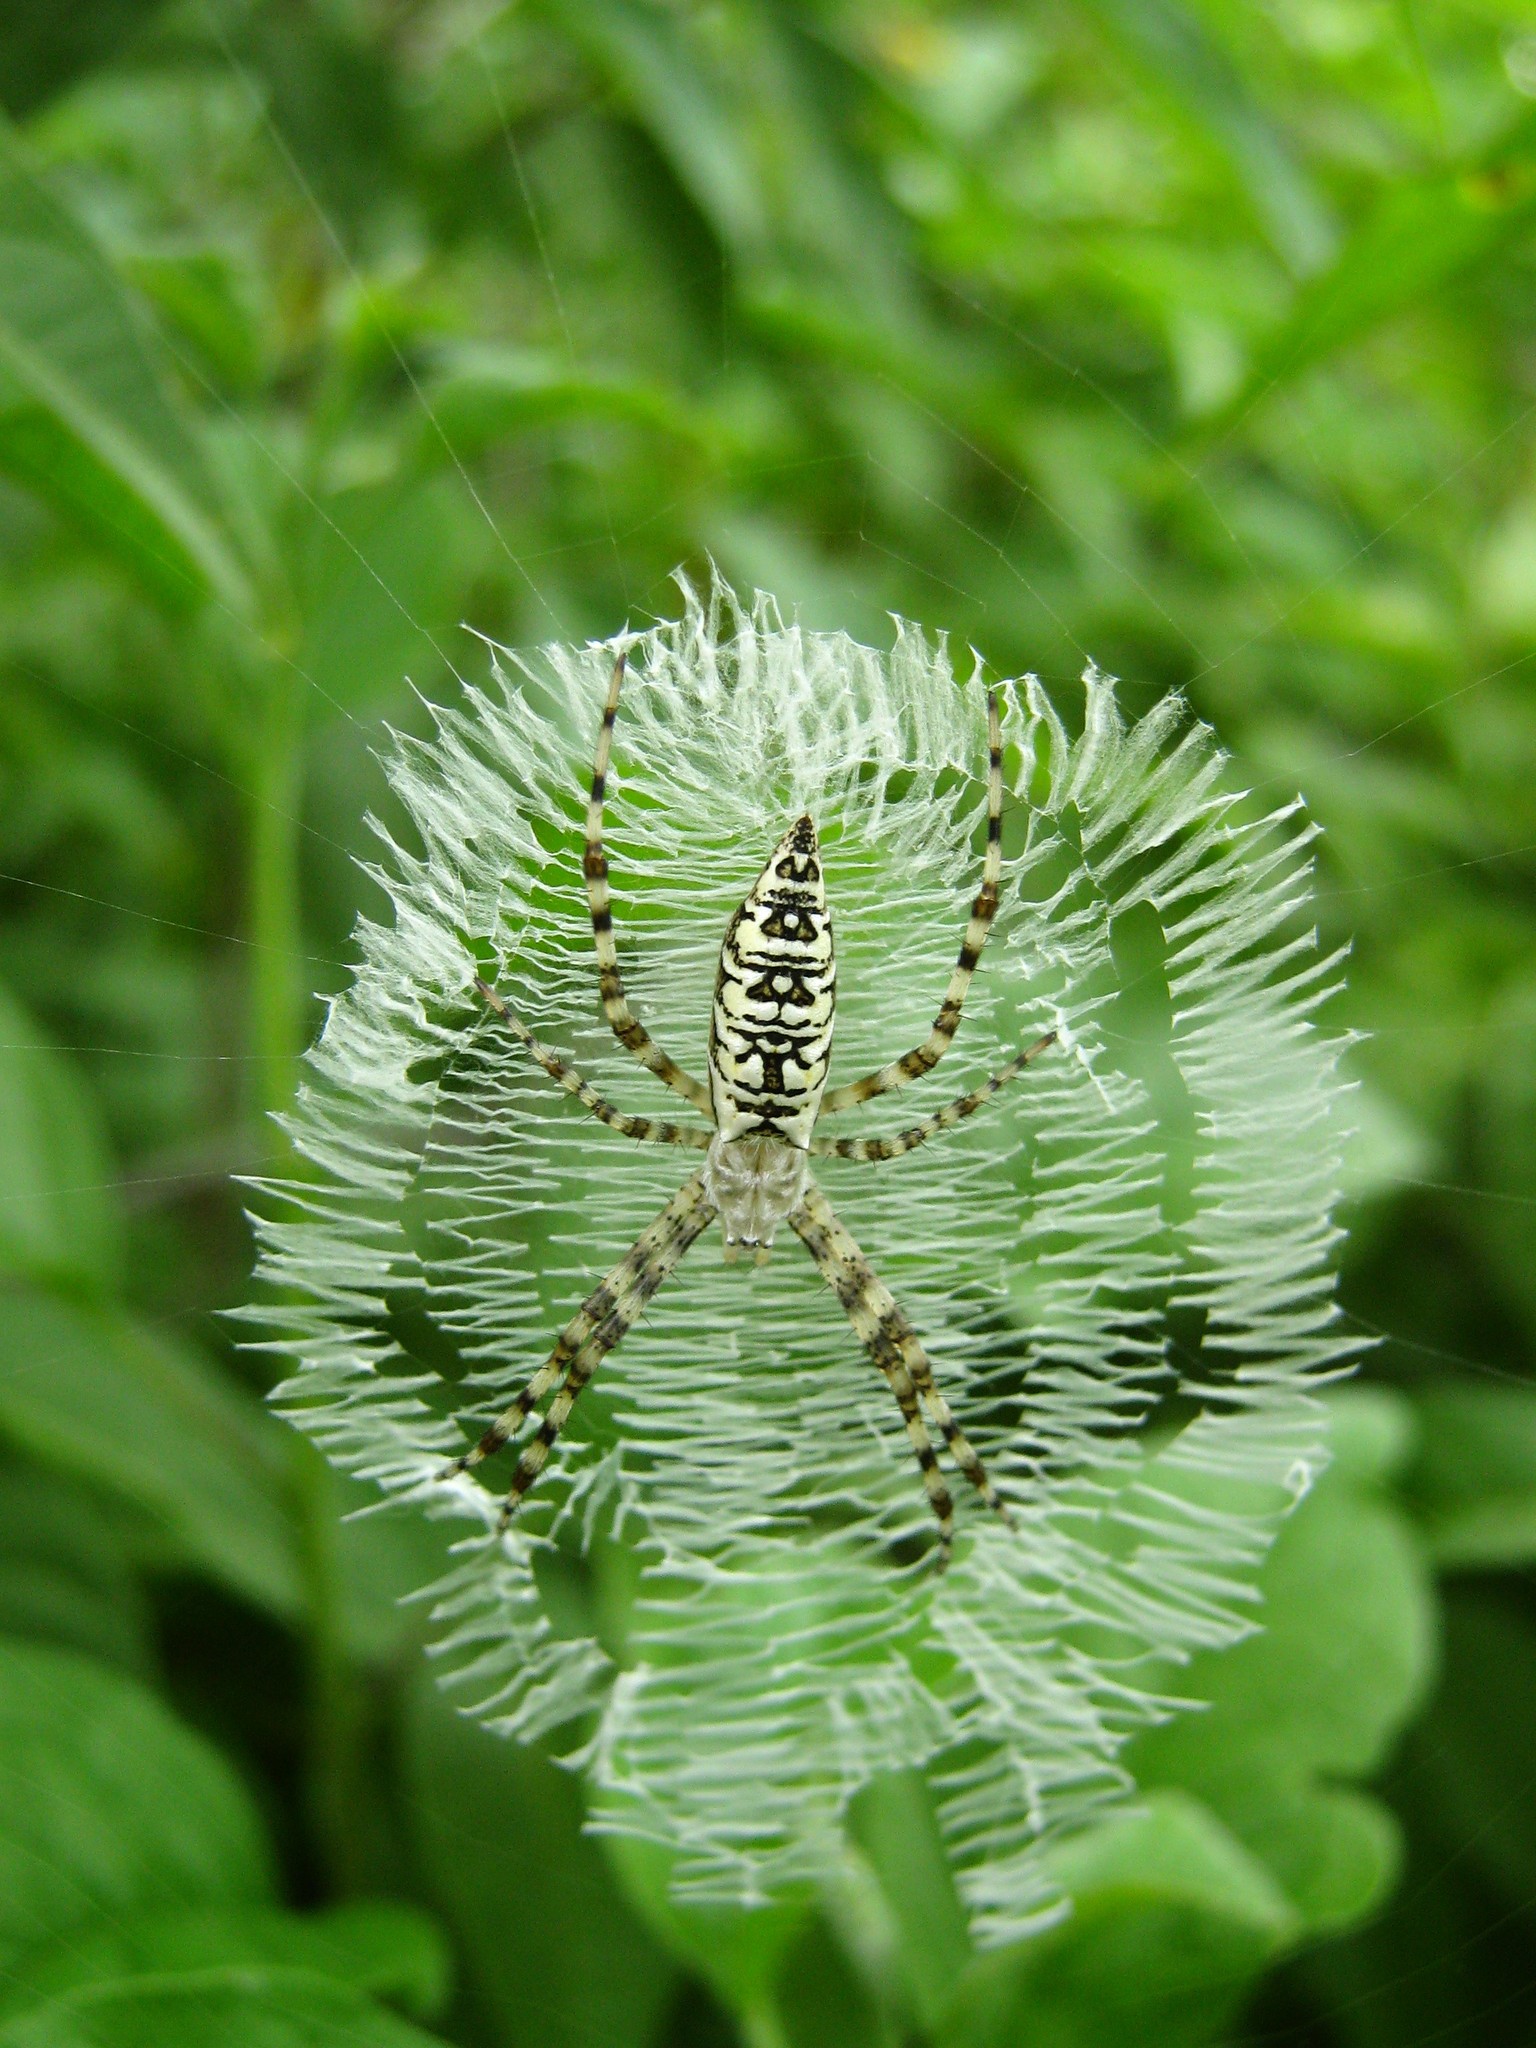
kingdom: Animalia
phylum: Arthropoda
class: Arachnida
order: Araneae
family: Araneidae
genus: Argiope
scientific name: Argiope aurantia
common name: Orb weavers
